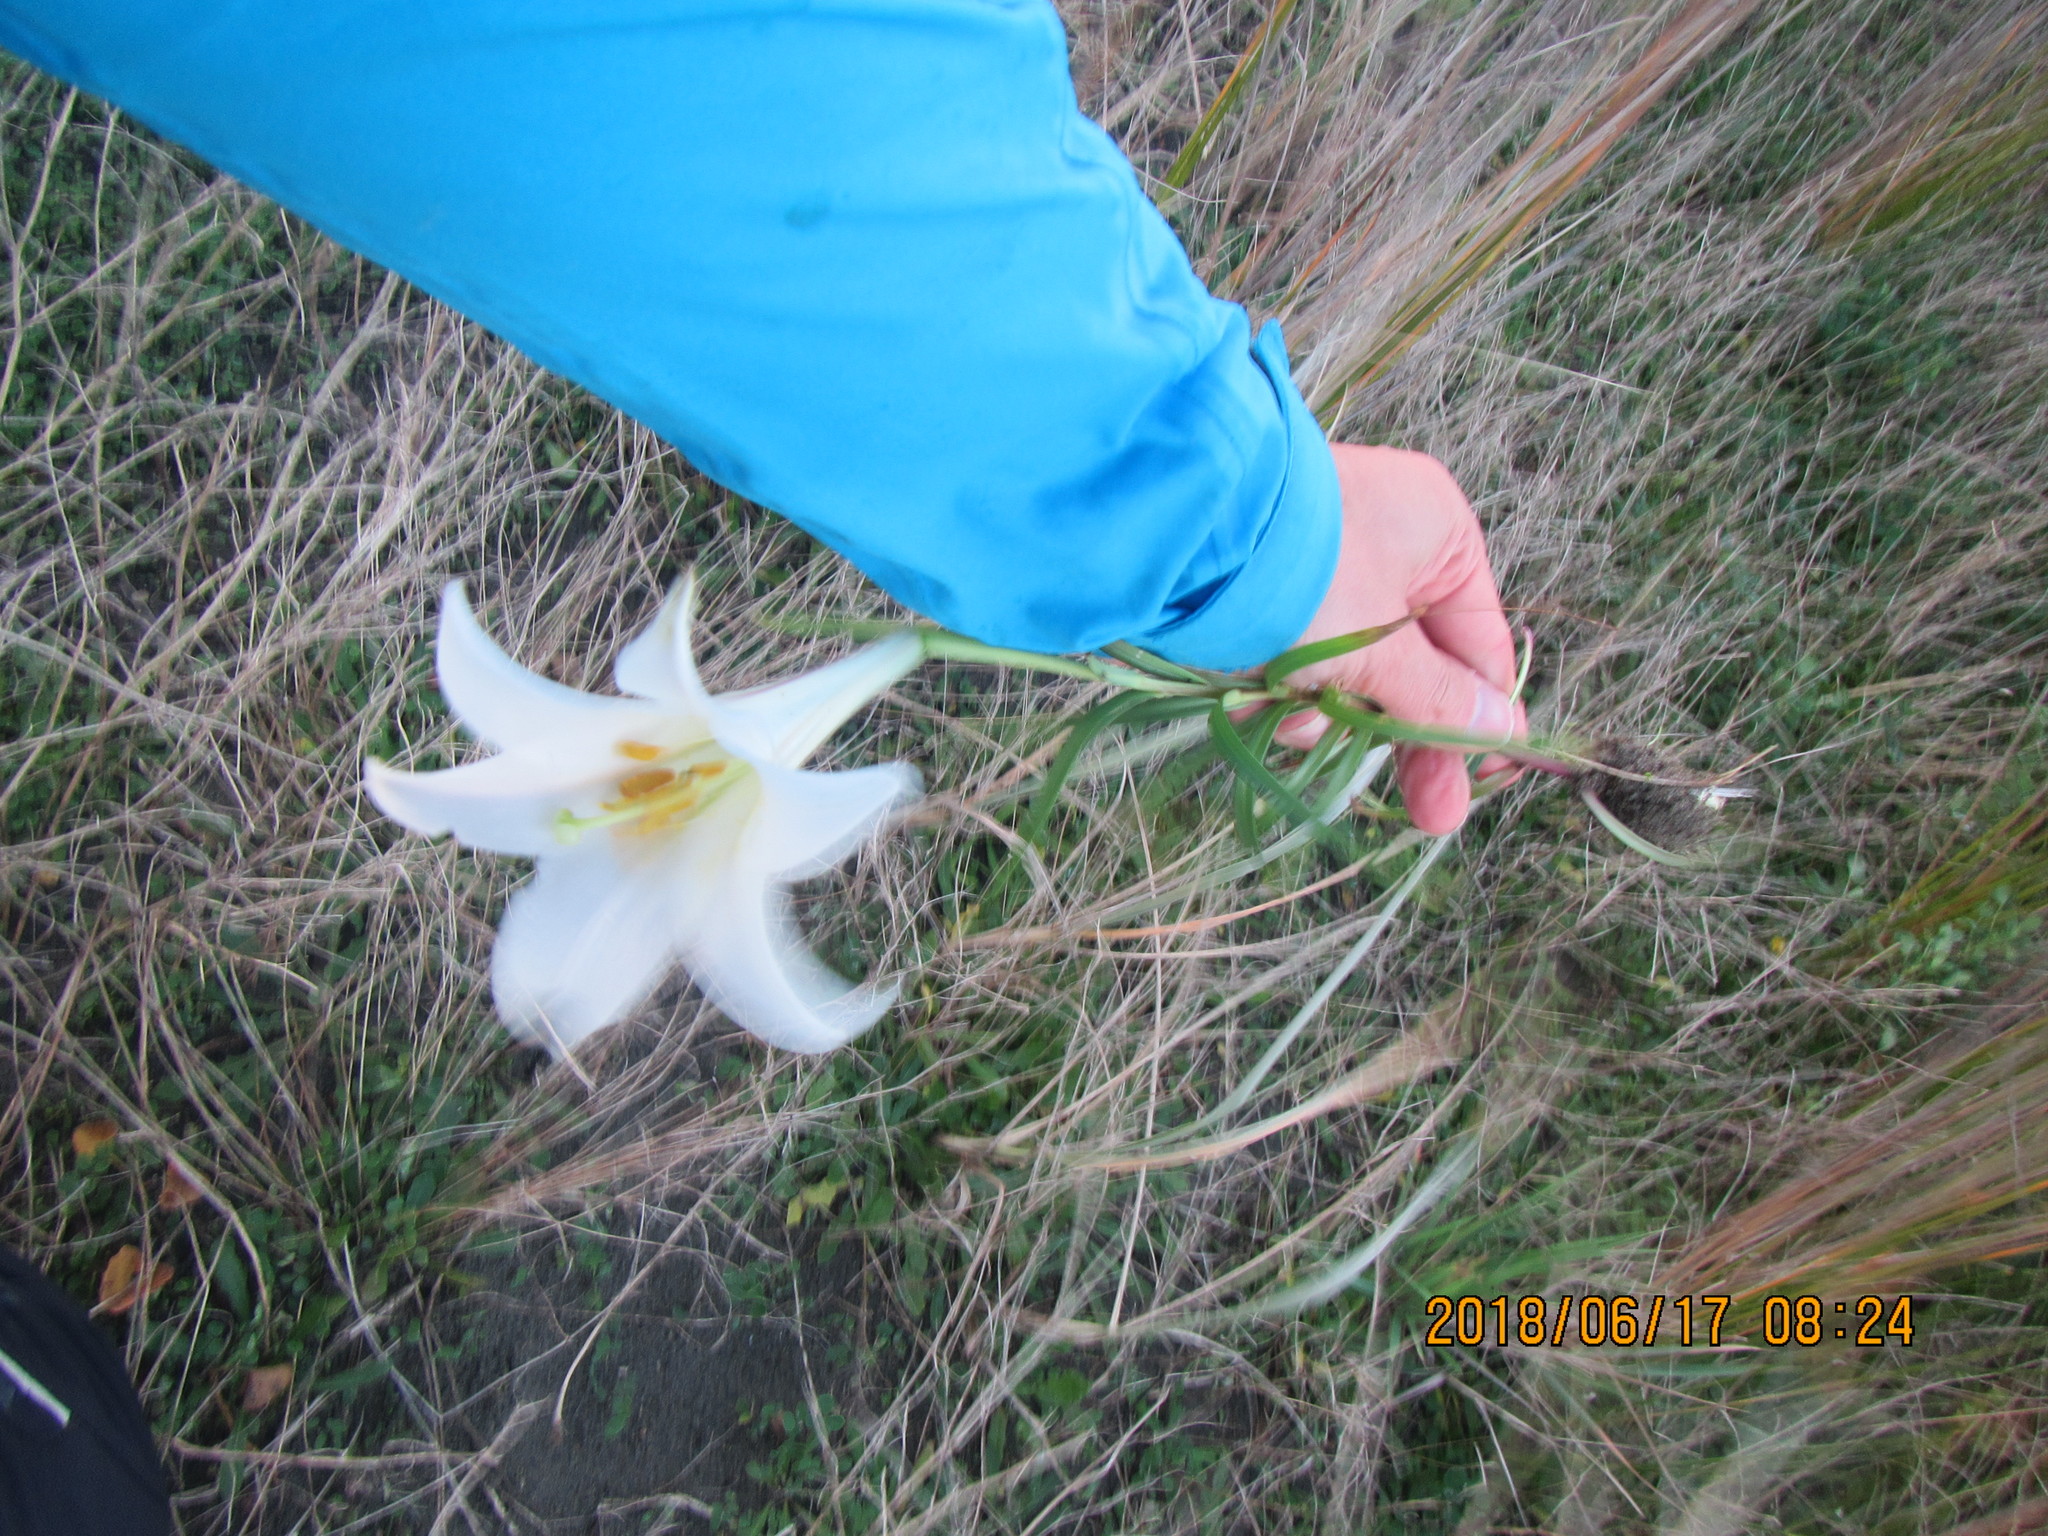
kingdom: Plantae
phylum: Tracheophyta
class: Liliopsida
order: Liliales
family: Liliaceae
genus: Lilium
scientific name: Lilium formosanum
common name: Formosa lily
